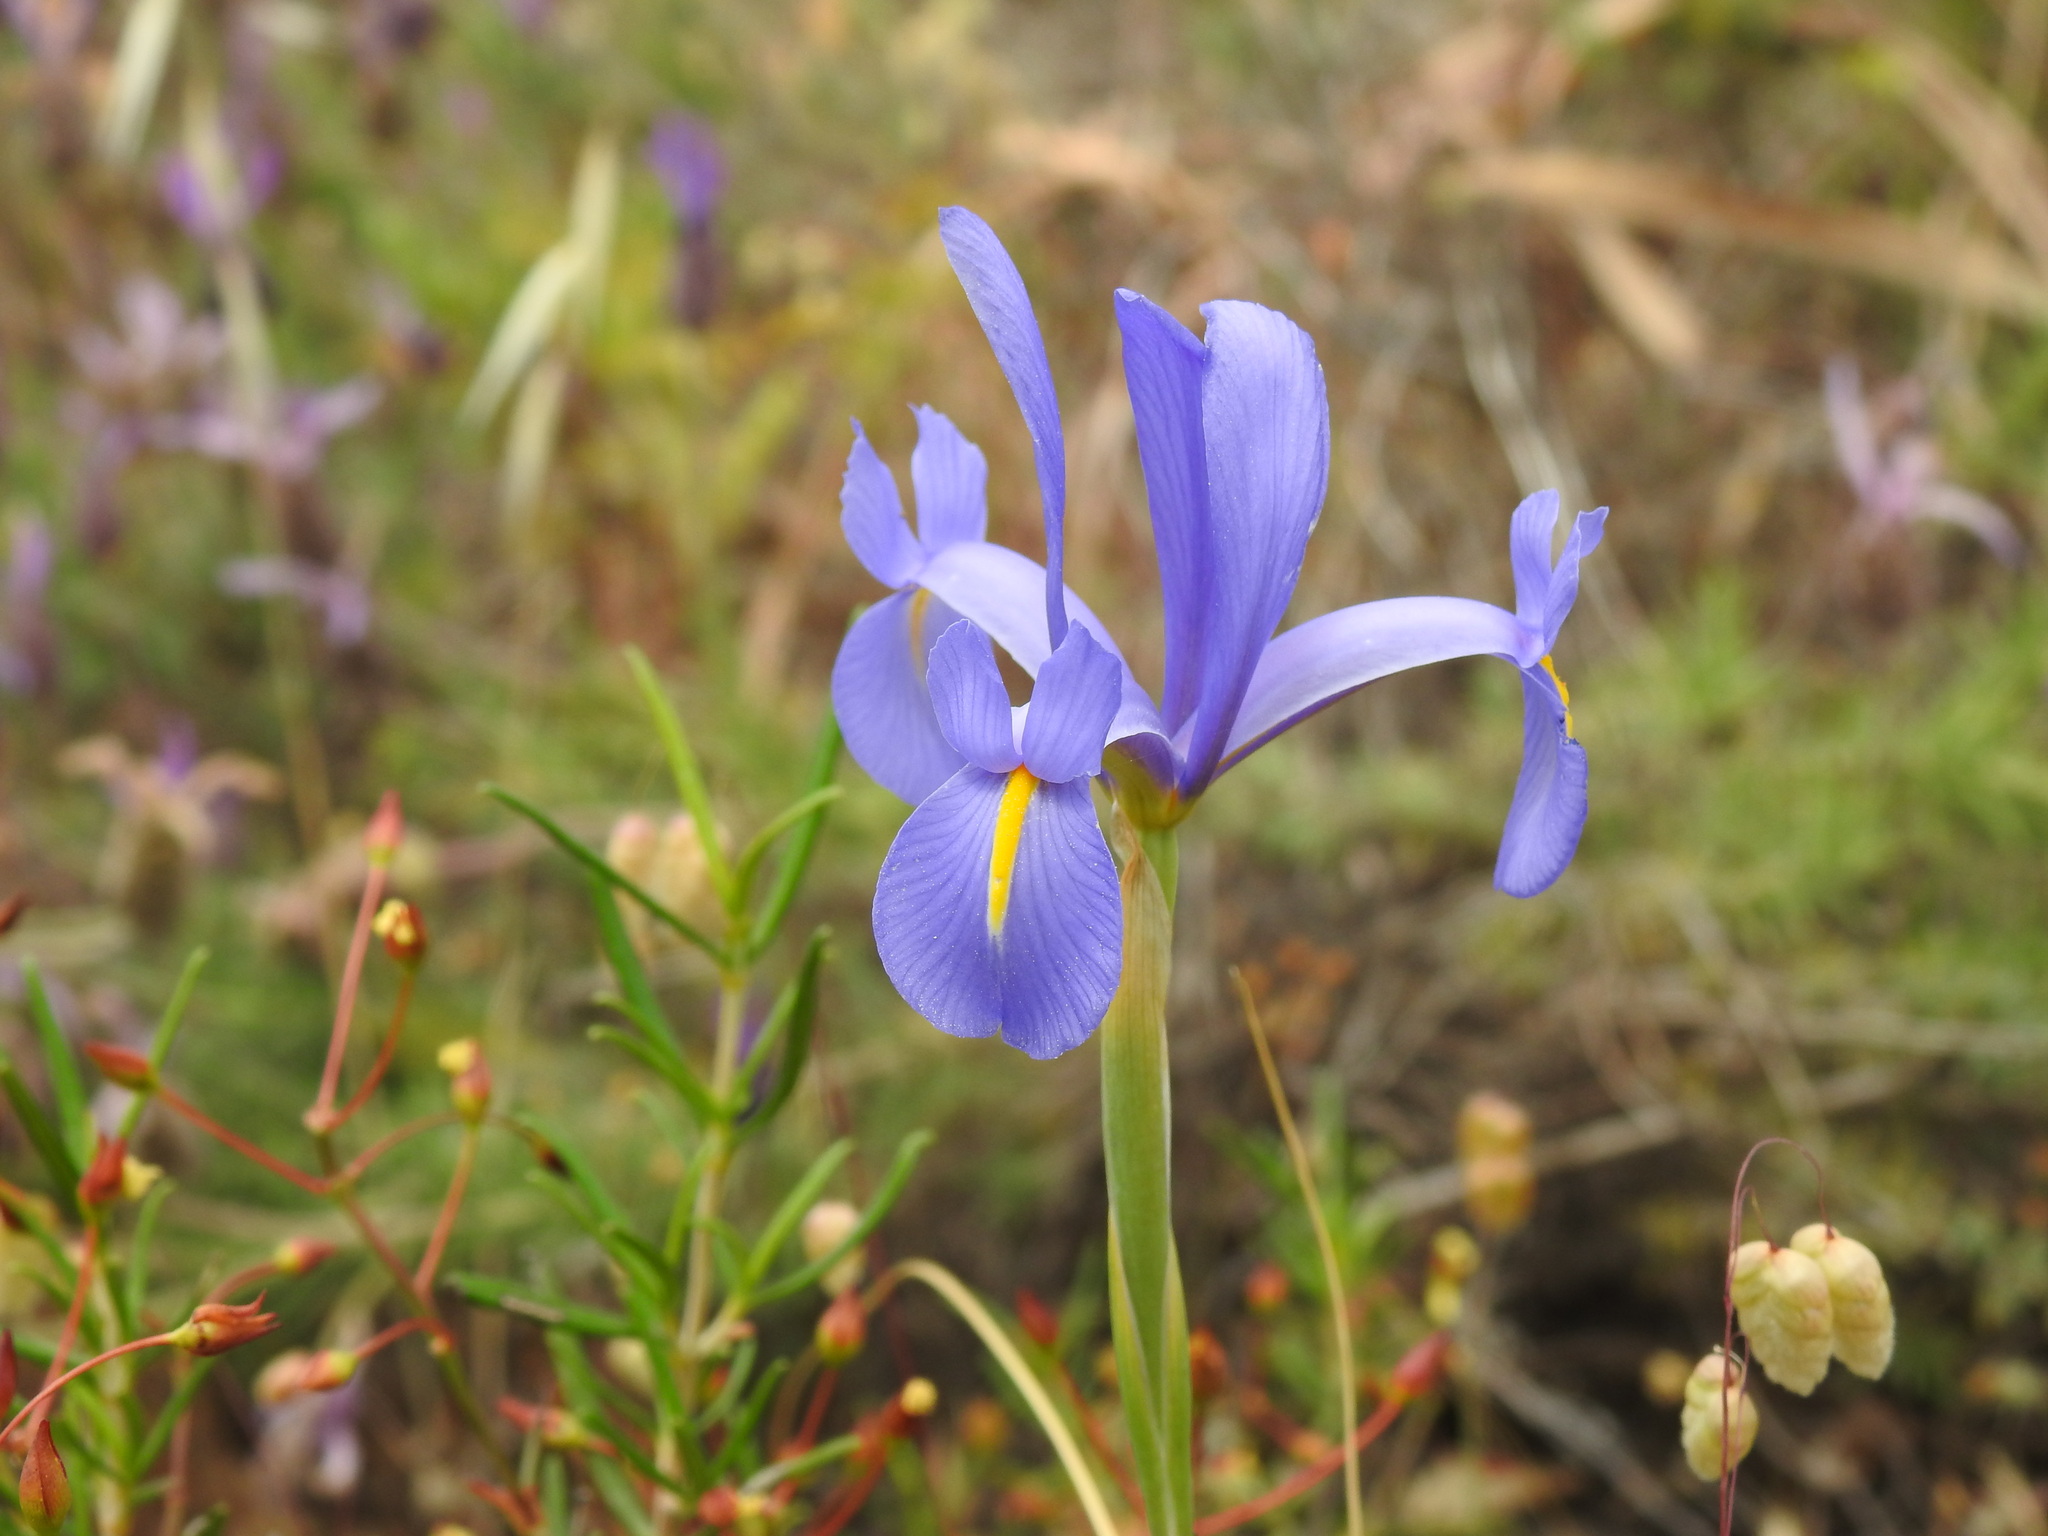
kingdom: Plantae
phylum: Tracheophyta
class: Liliopsida
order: Asparagales
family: Iridaceae
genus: Iris
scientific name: Iris xiphium
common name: Spanish iris
